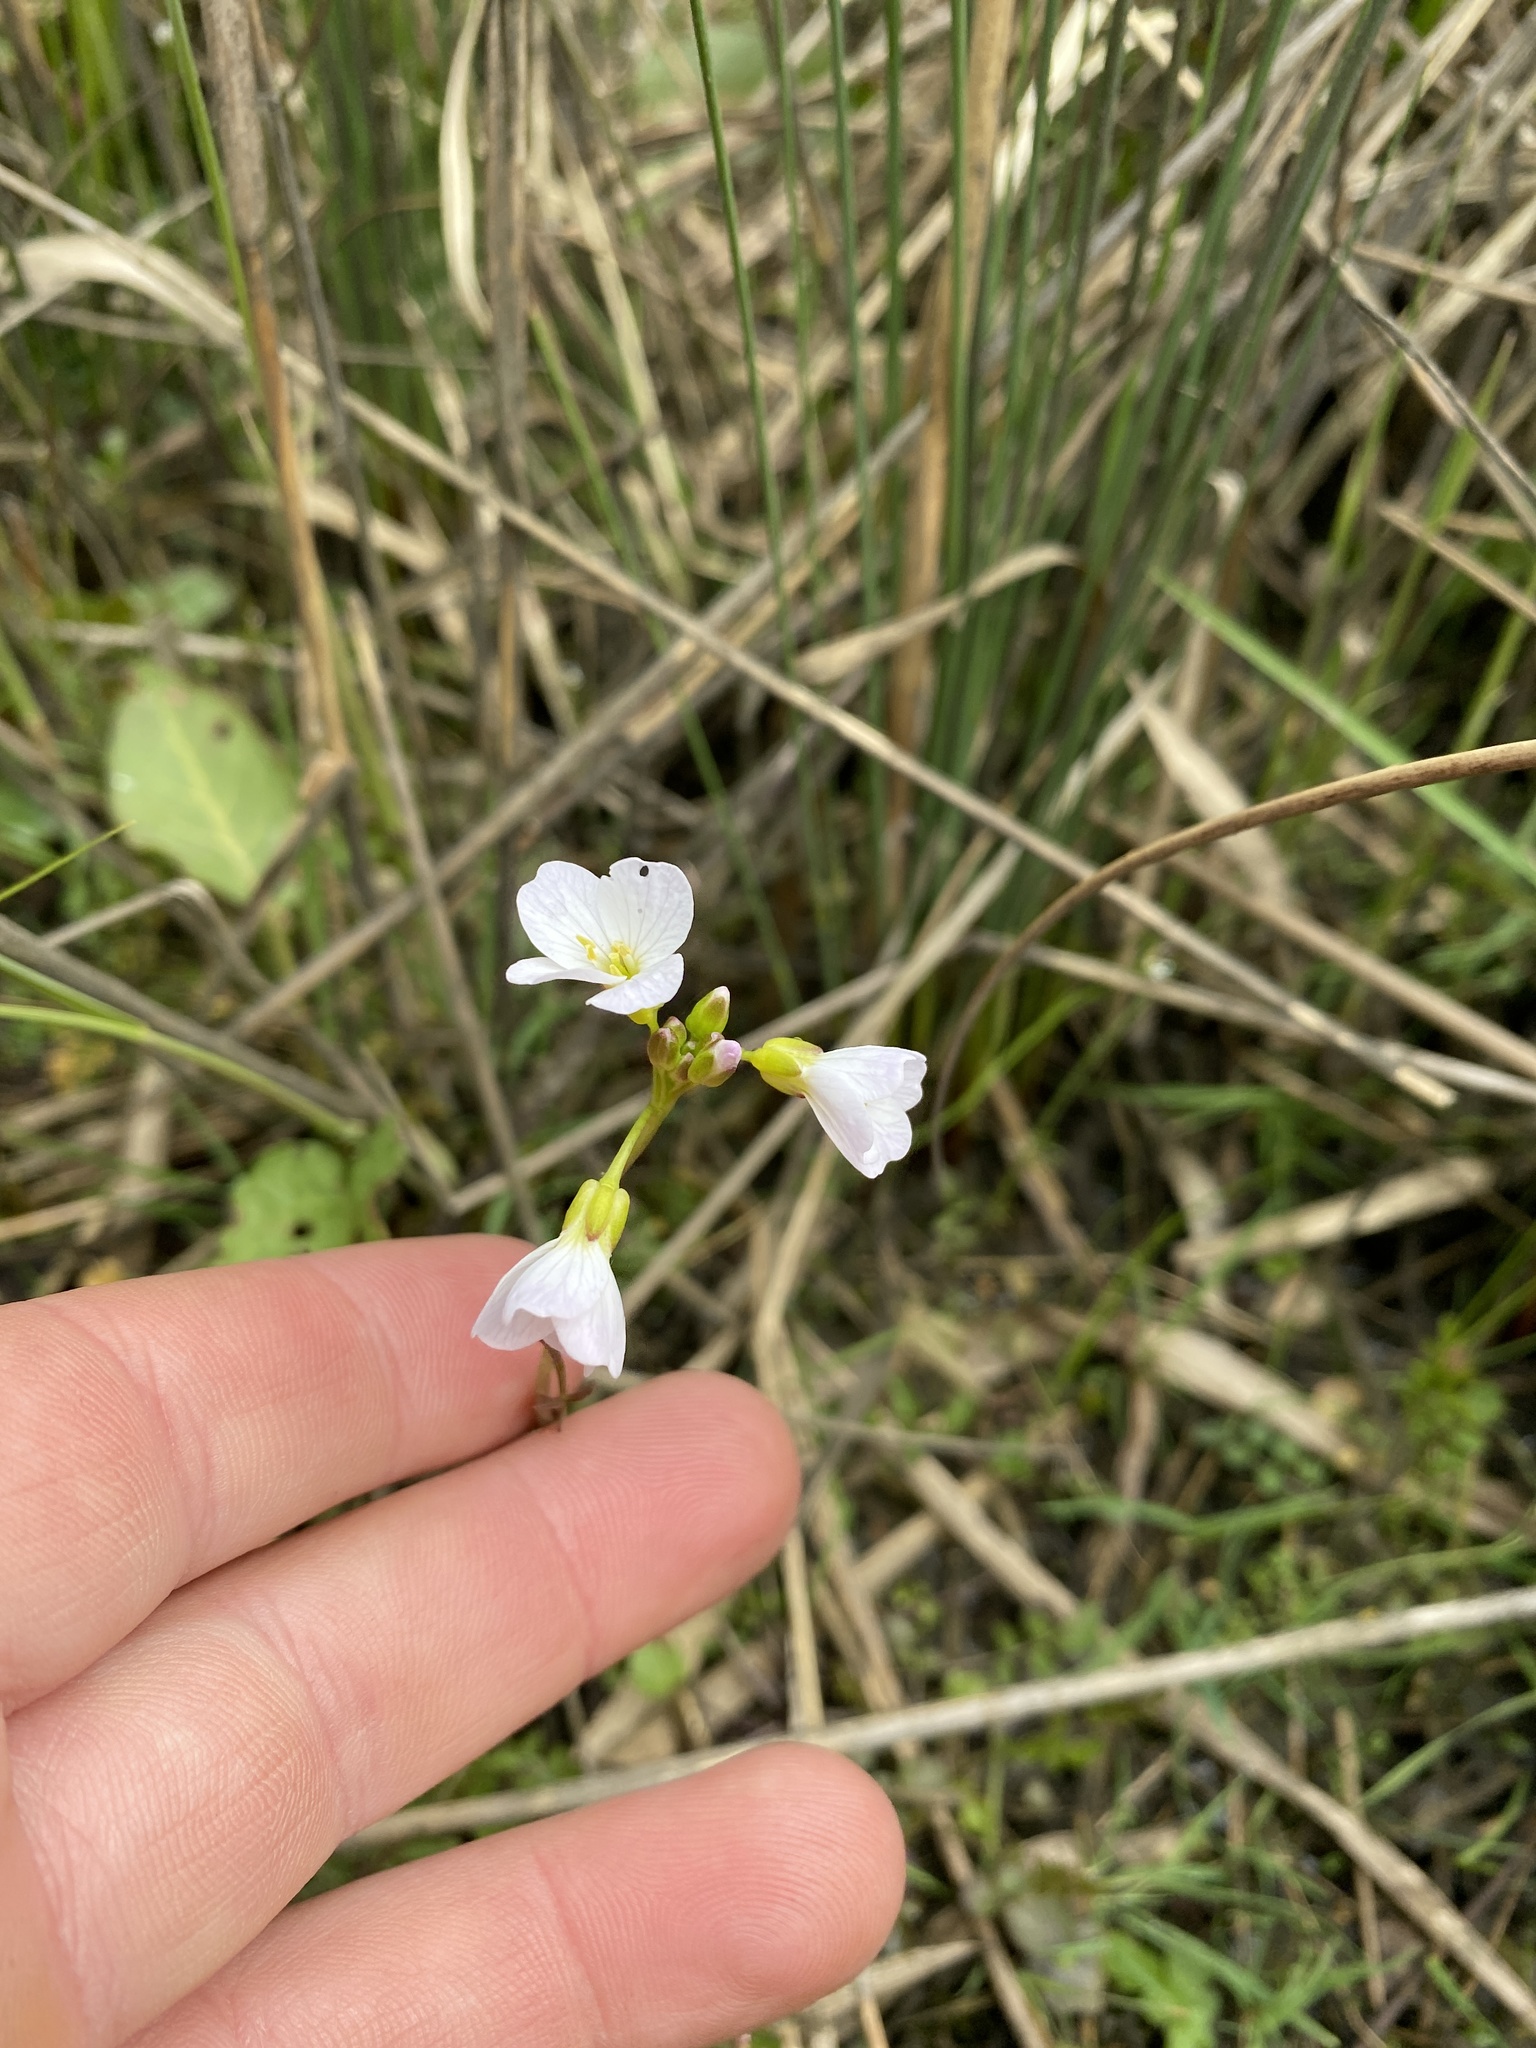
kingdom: Plantae
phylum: Tracheophyta
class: Magnoliopsida
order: Brassicales
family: Brassicaceae
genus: Cardamine
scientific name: Cardamine pratensis
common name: Cuckoo flower
